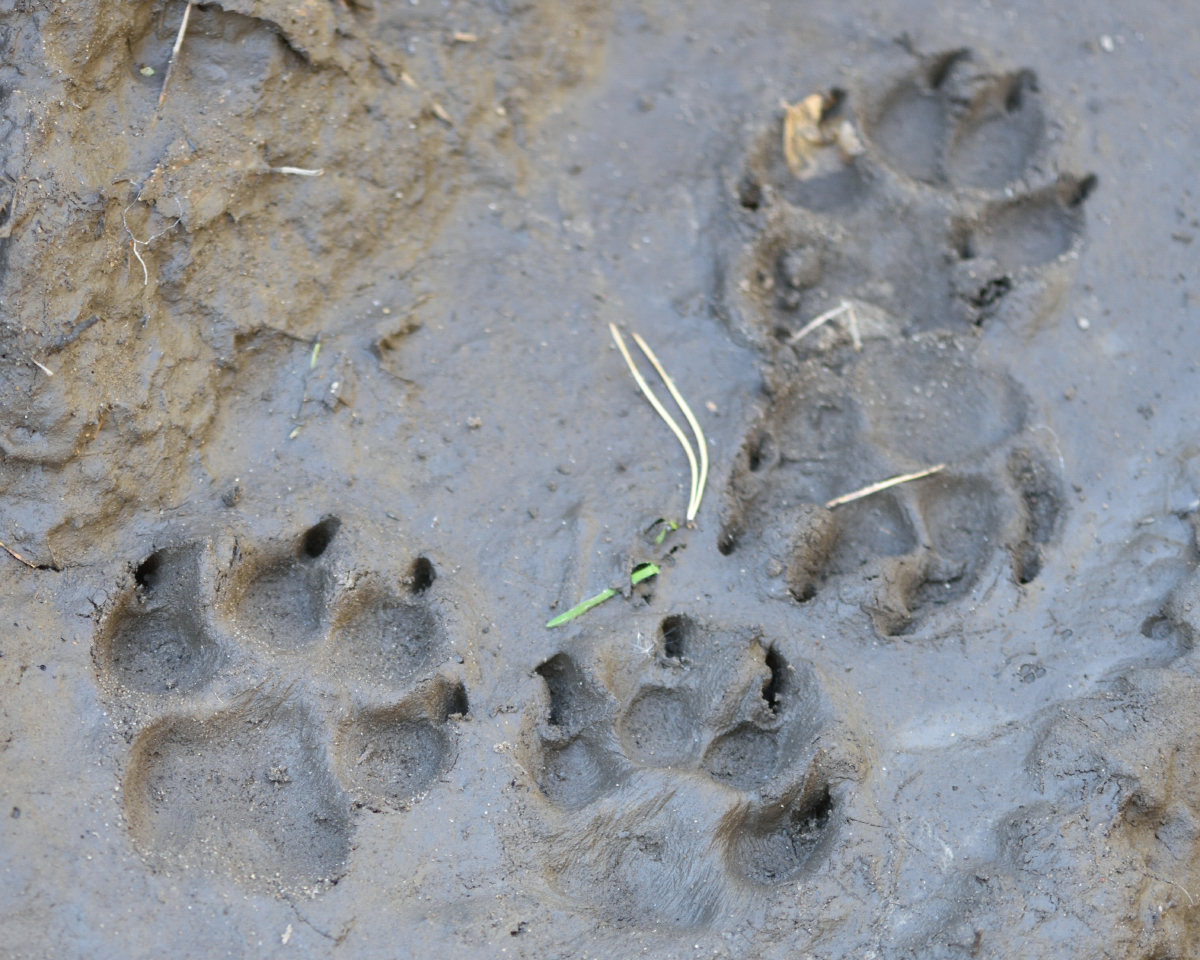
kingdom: Animalia
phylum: Chordata
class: Mammalia
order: Carnivora
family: Canidae
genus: Canis
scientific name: Canis lupus
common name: Gray wolf
